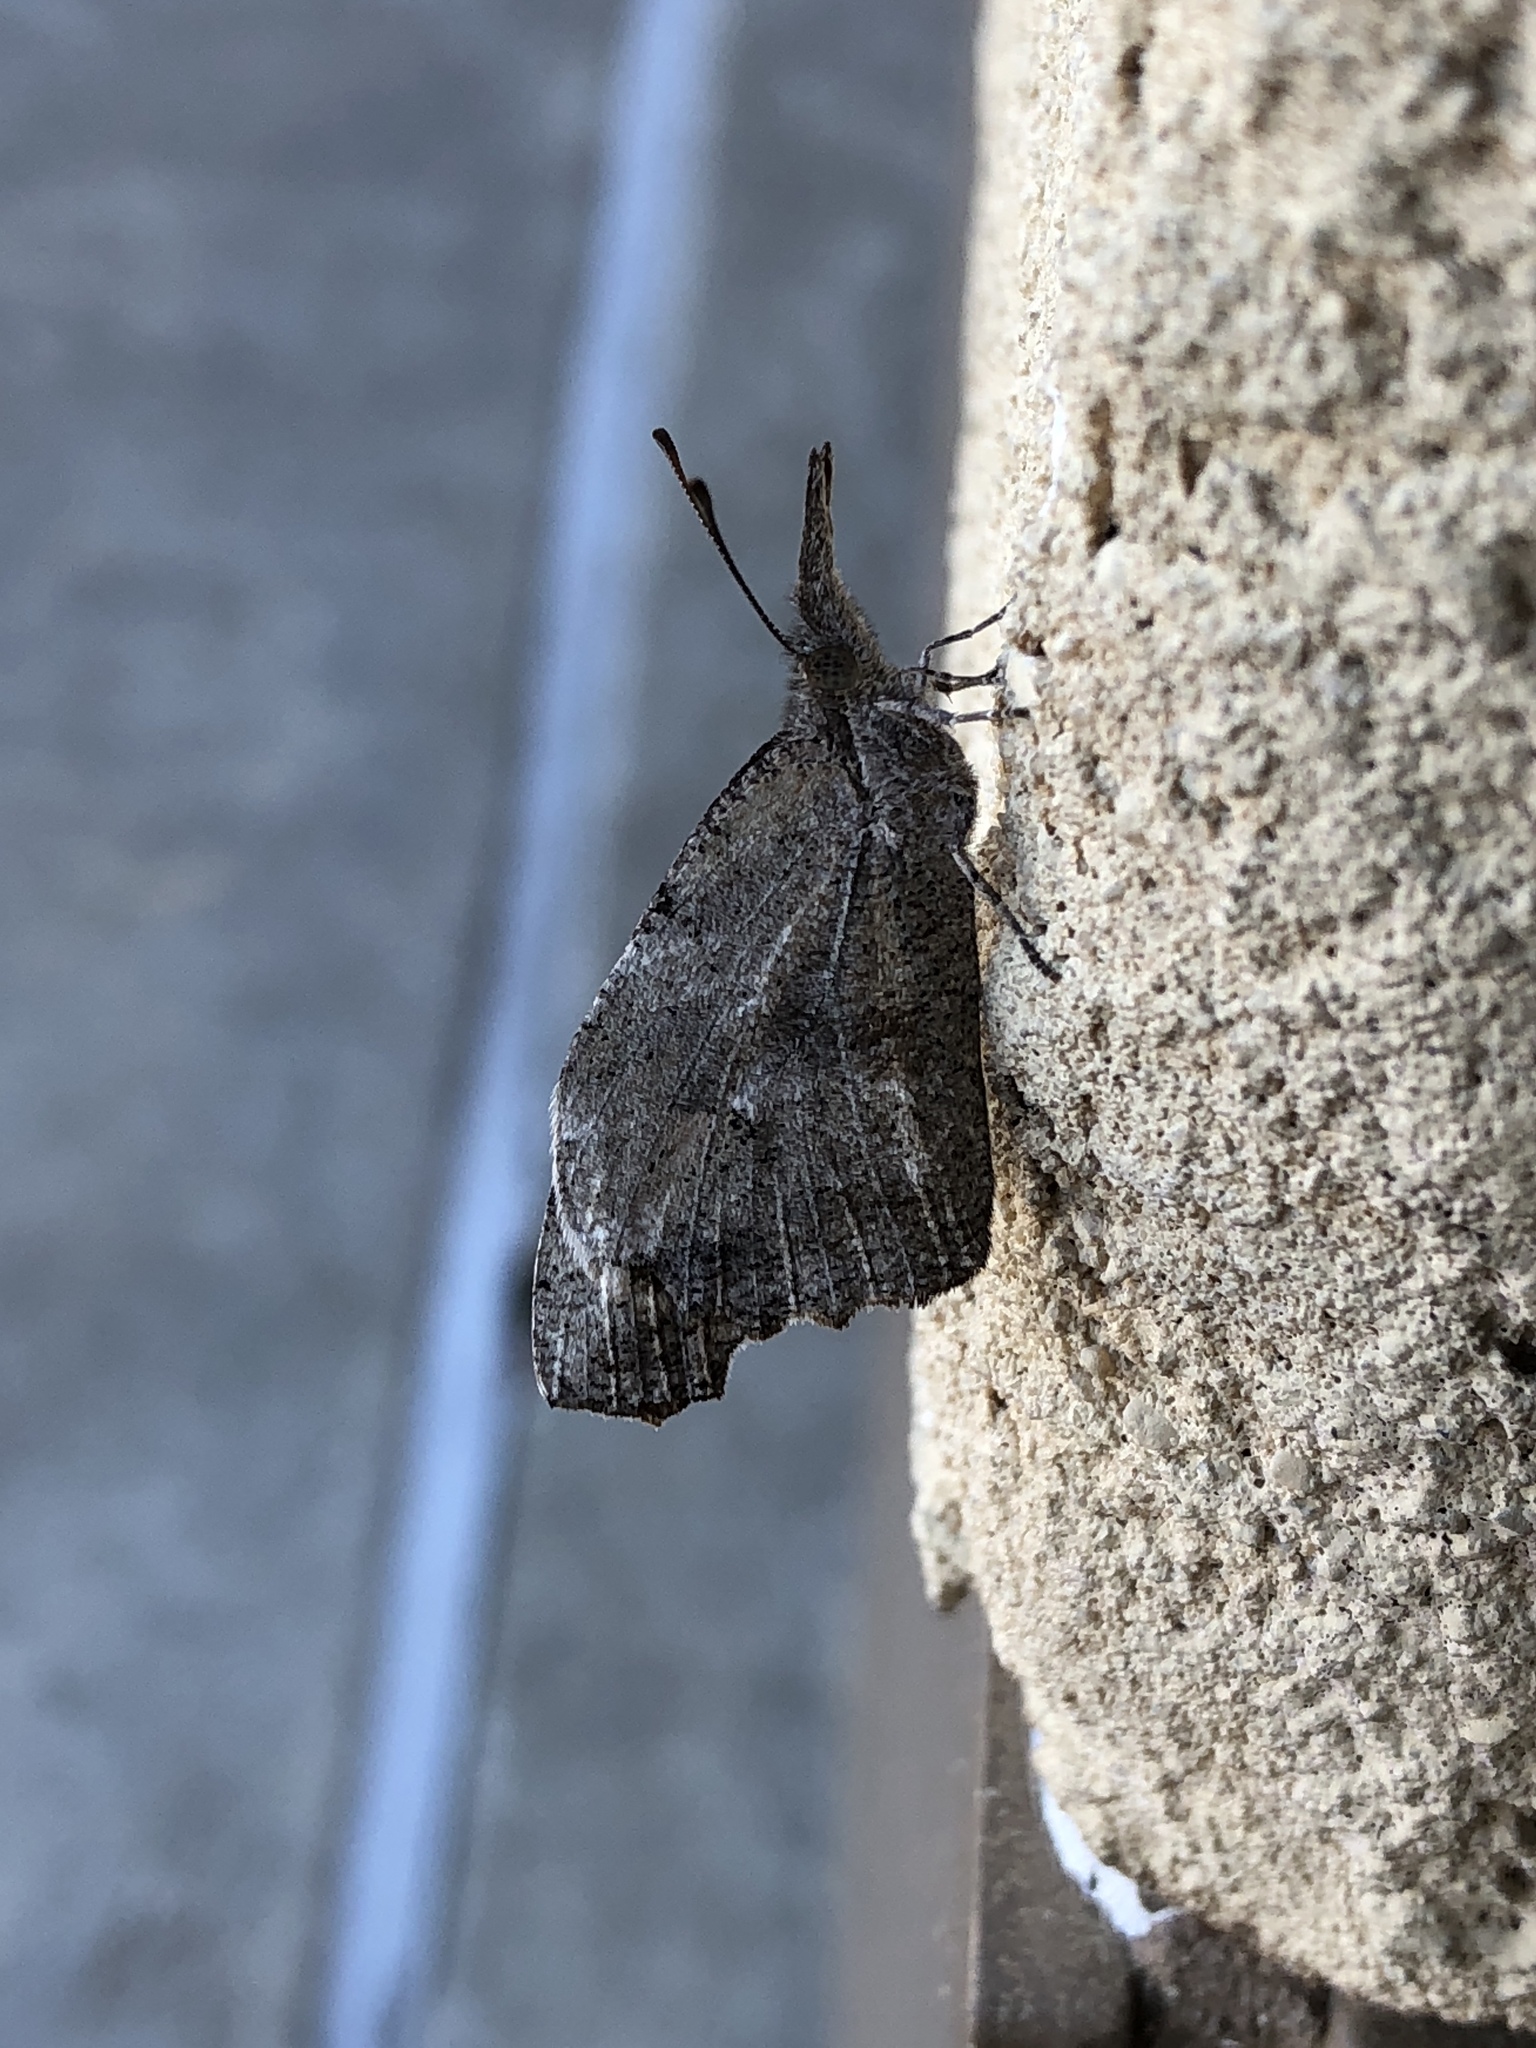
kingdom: Animalia
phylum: Arthropoda
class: Insecta
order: Lepidoptera
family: Nymphalidae
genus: Libytheana
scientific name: Libytheana carinenta
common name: American snout
